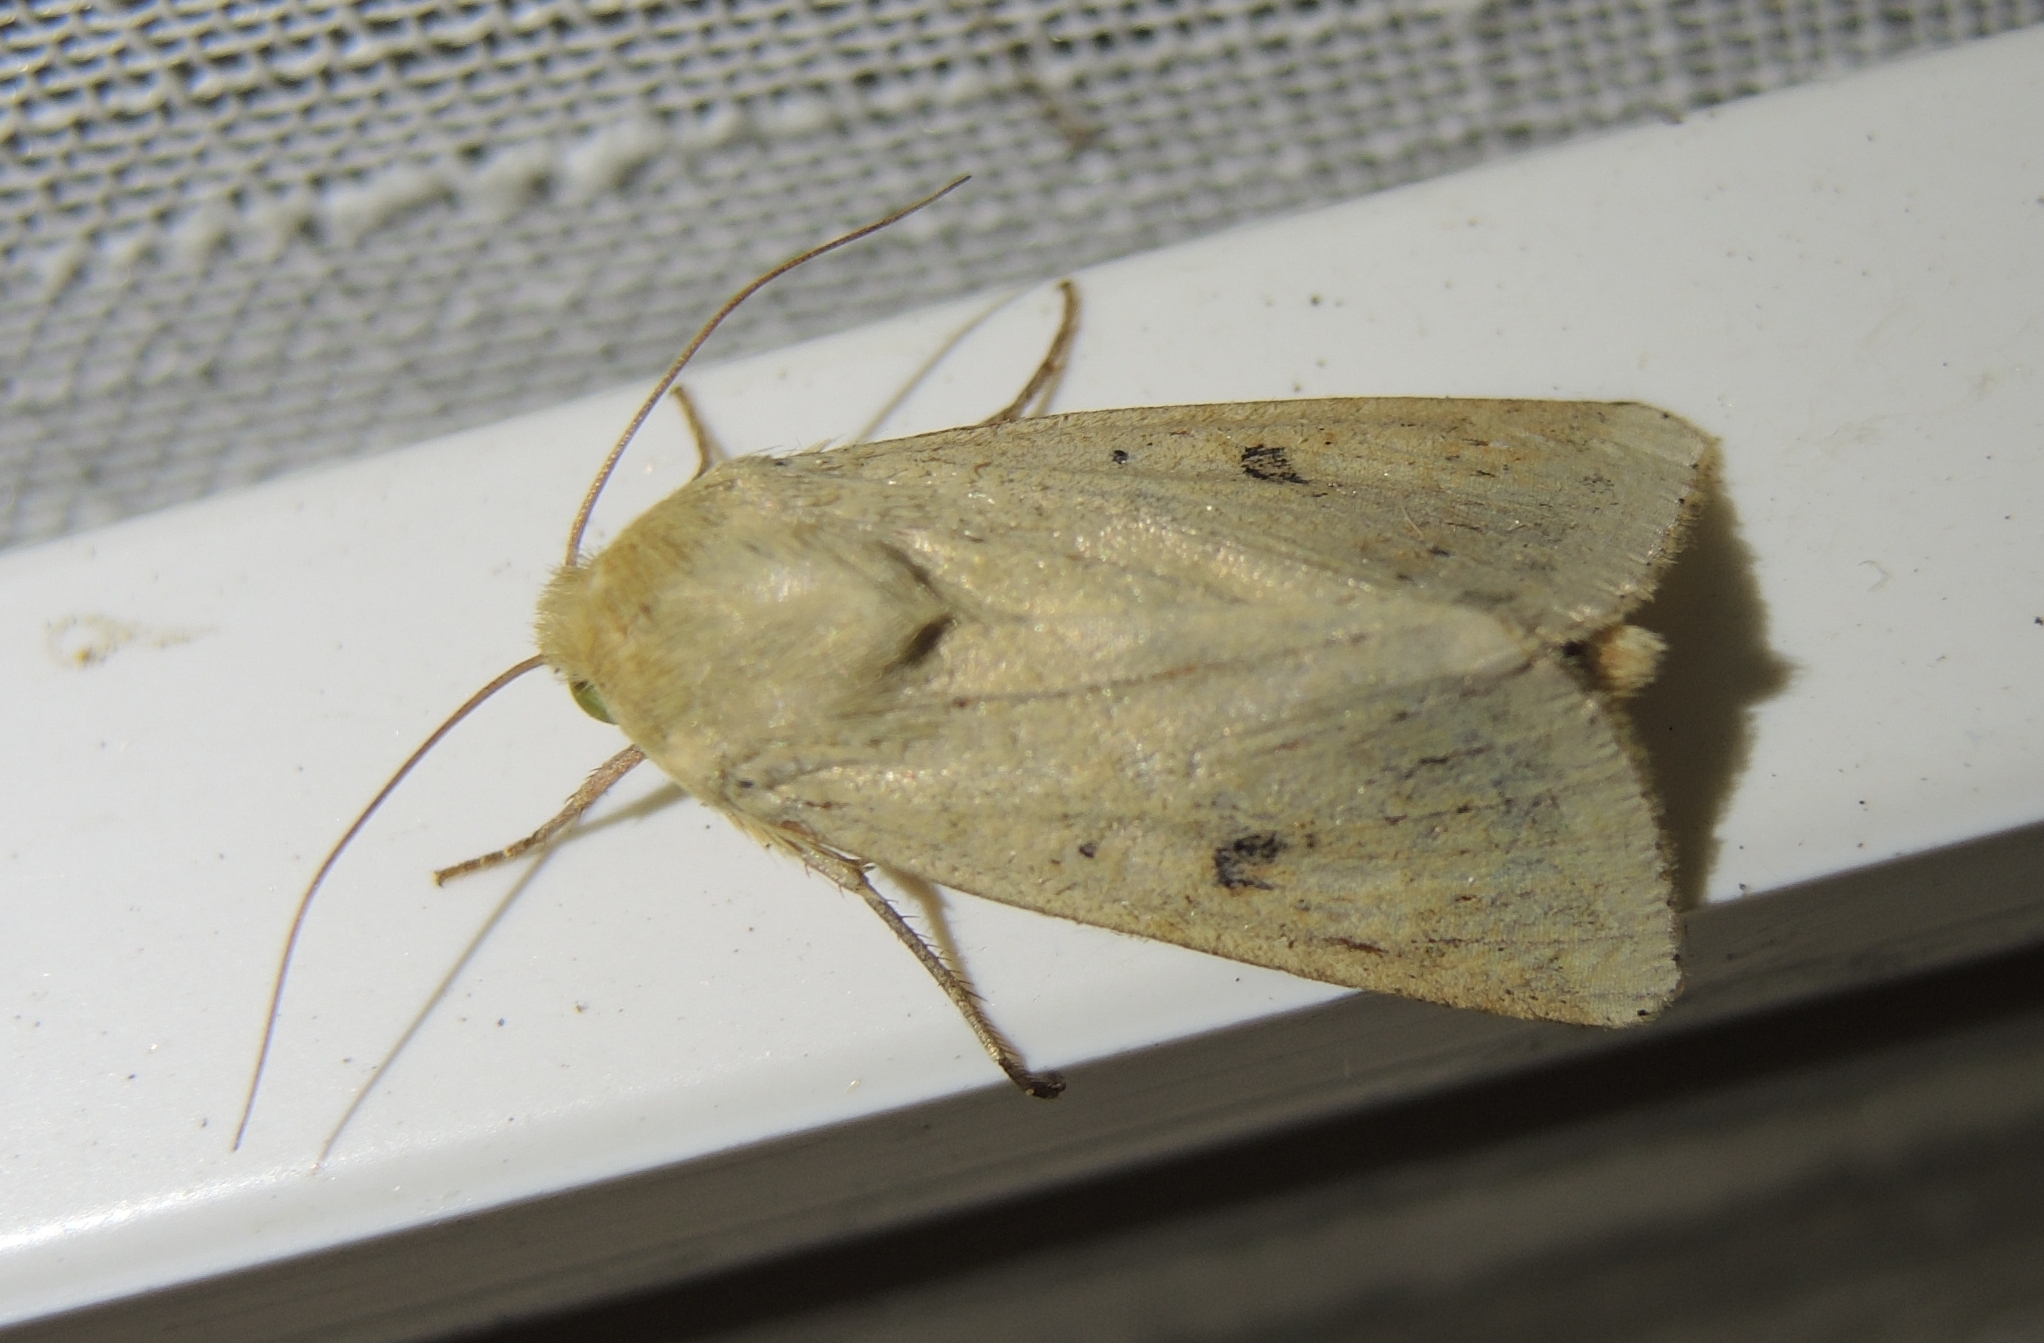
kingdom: Animalia
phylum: Arthropoda
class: Insecta
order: Lepidoptera
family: Noctuidae
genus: Helicoverpa
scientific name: Helicoverpa armigera
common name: Cotton bollworm
